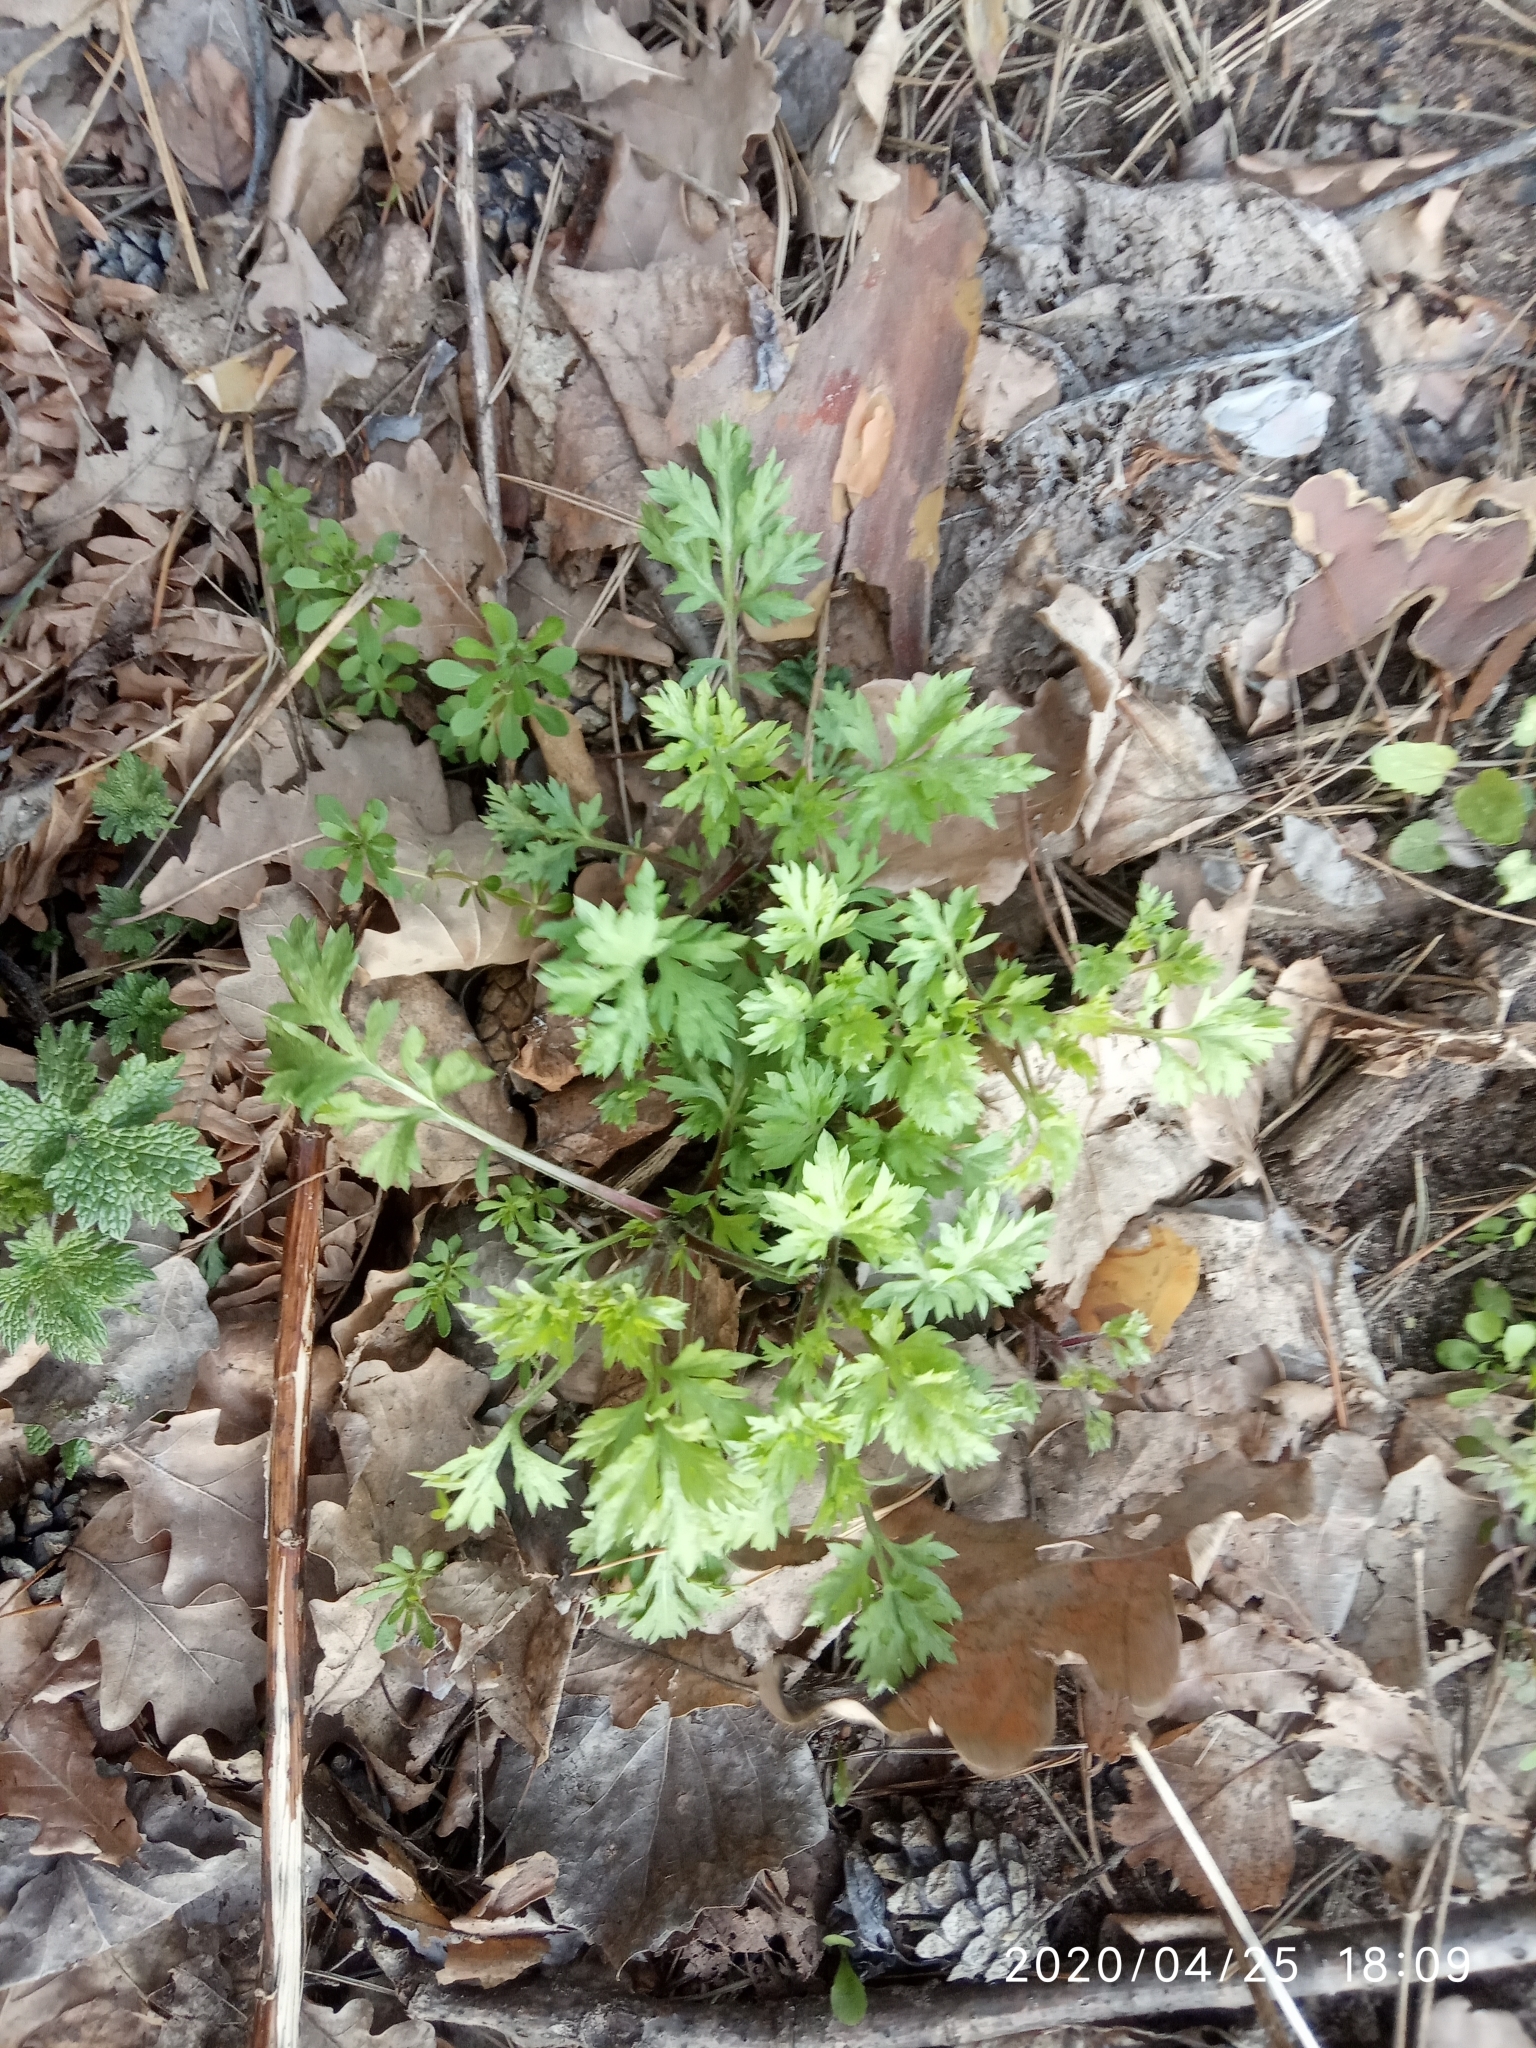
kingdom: Plantae
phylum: Tracheophyta
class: Magnoliopsida
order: Asterales
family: Asteraceae
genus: Artemisia
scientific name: Artemisia vulgaris
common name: Mugwort
